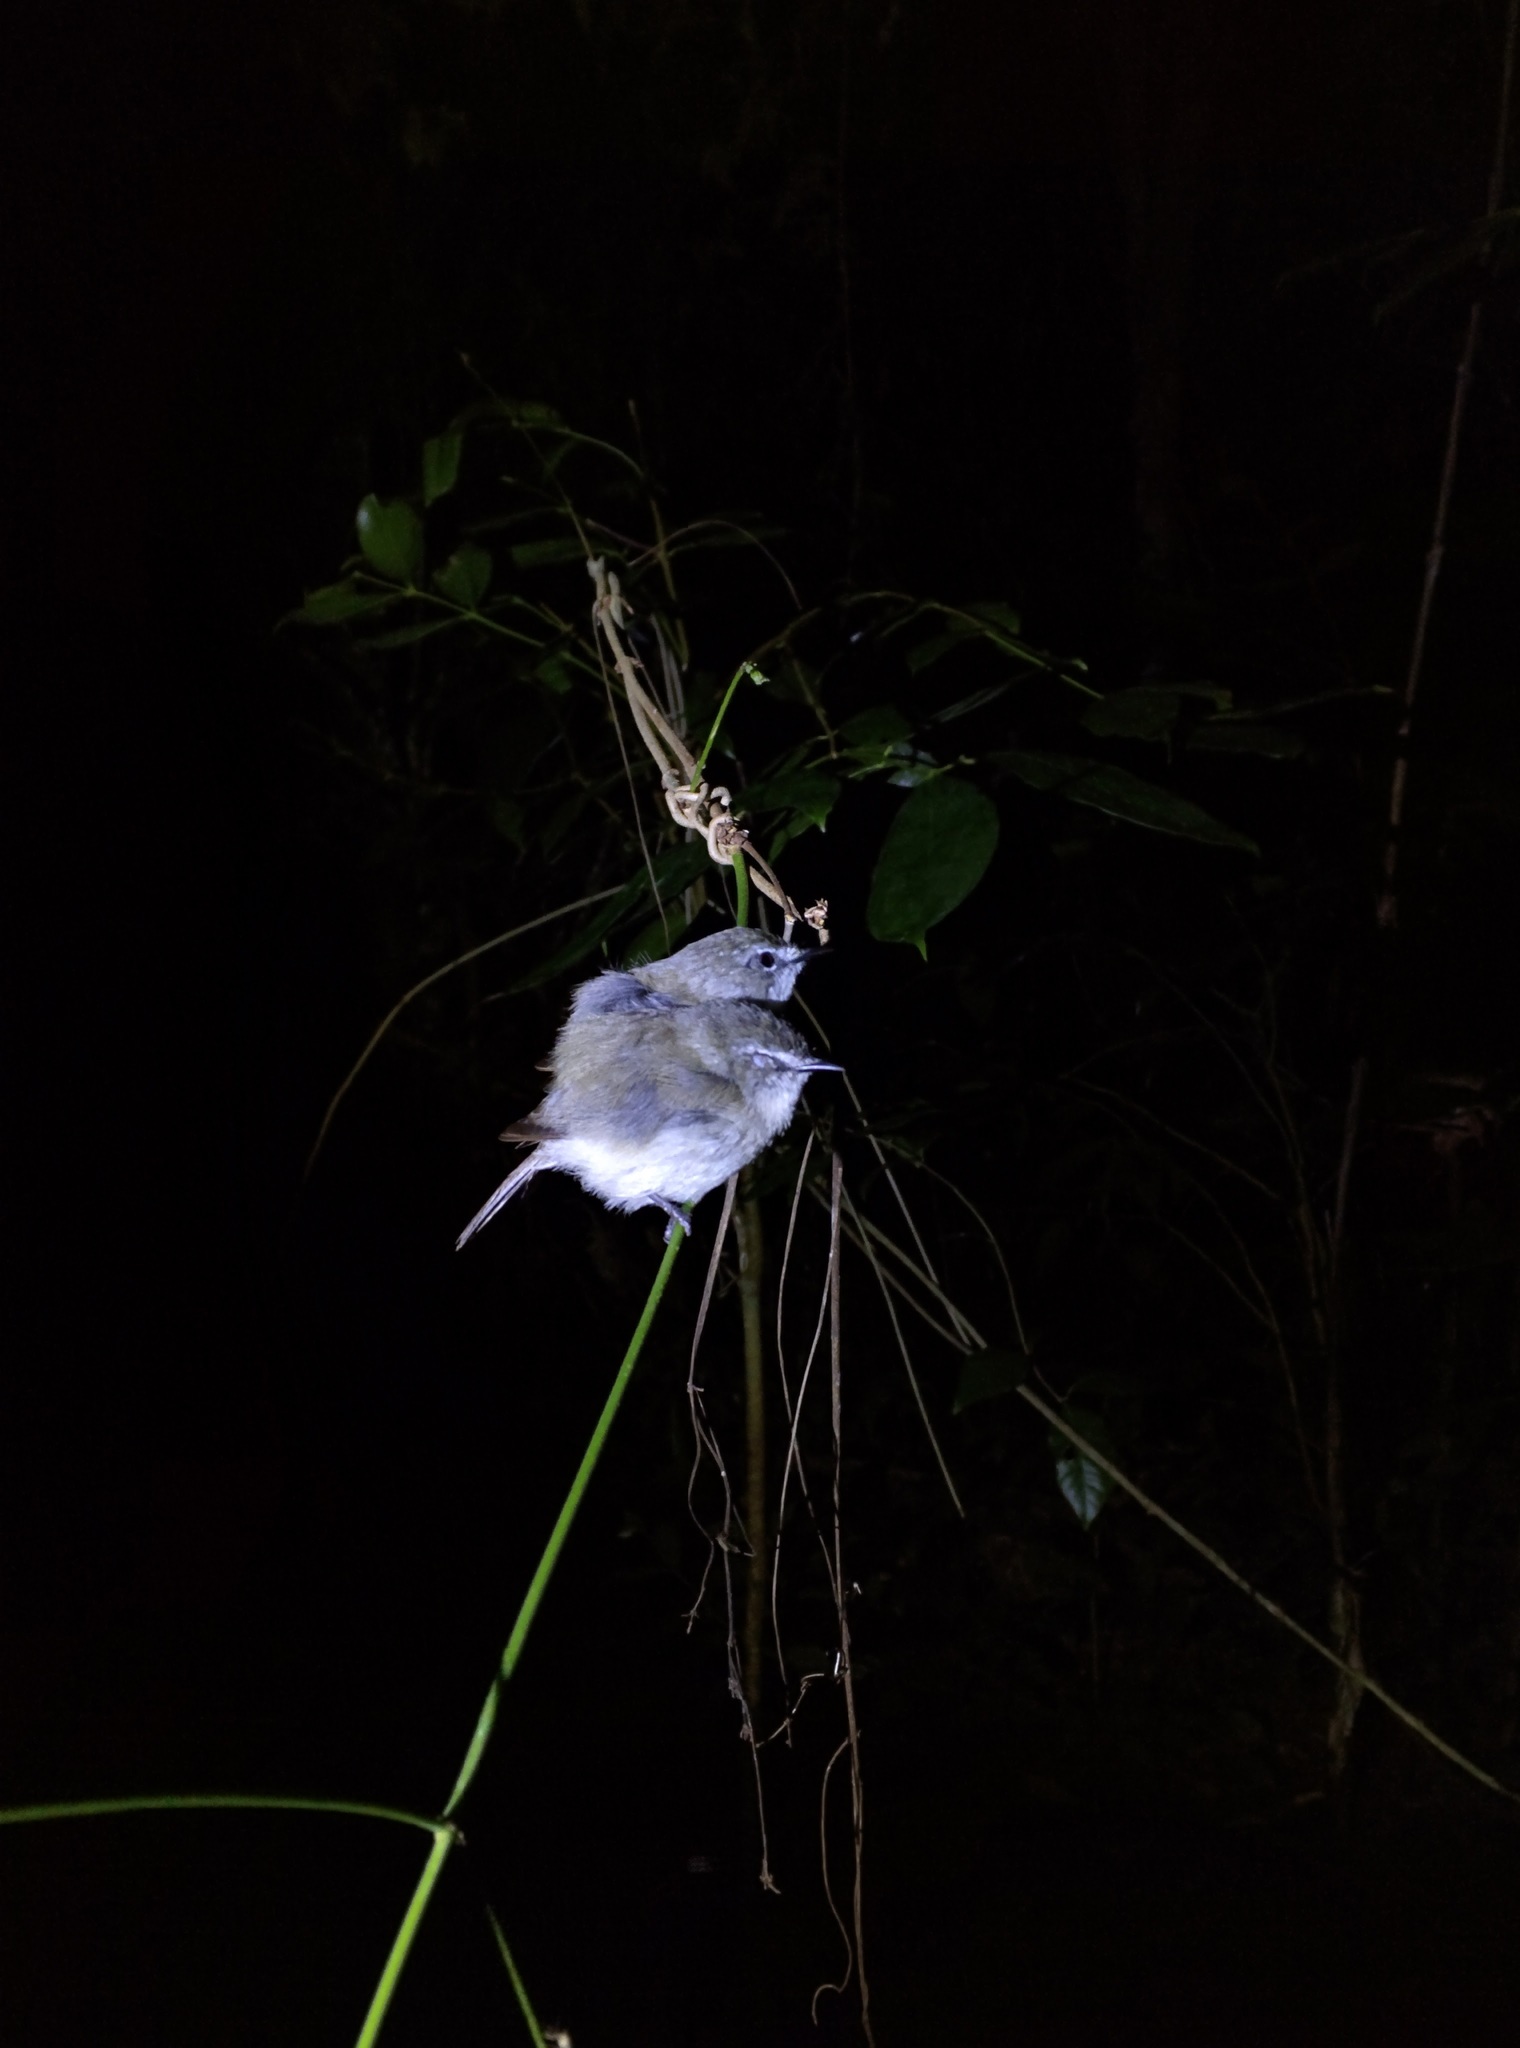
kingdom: Animalia
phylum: Chordata
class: Aves
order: Passeriformes
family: Acanthizidae
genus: Gerygone
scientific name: Gerygone mouki
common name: Brown gerygone
